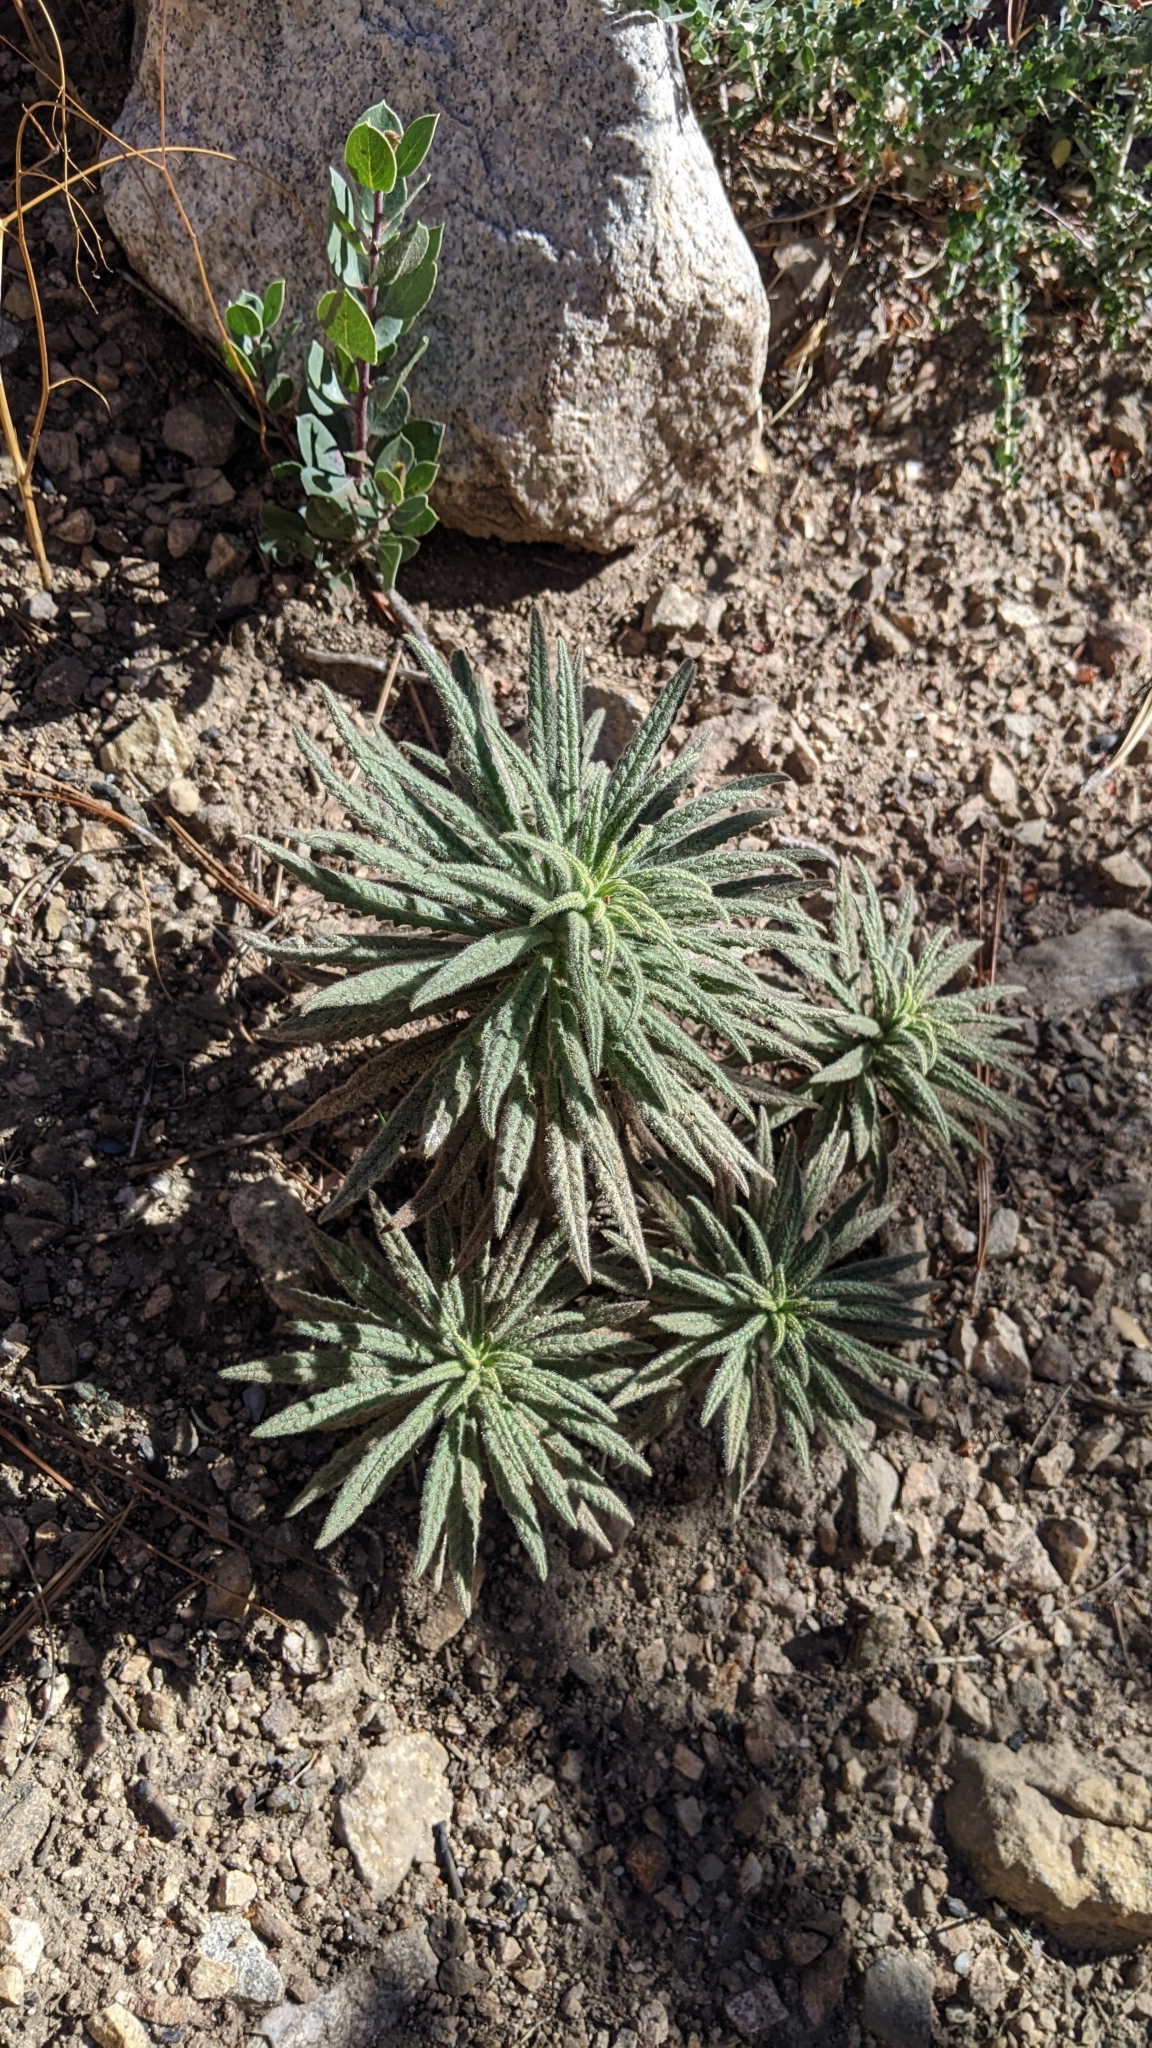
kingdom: Plantae
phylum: Tracheophyta
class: Magnoliopsida
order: Boraginales
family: Namaceae
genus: Turricula
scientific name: Turricula parryi
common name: Poodle-dog-bush
